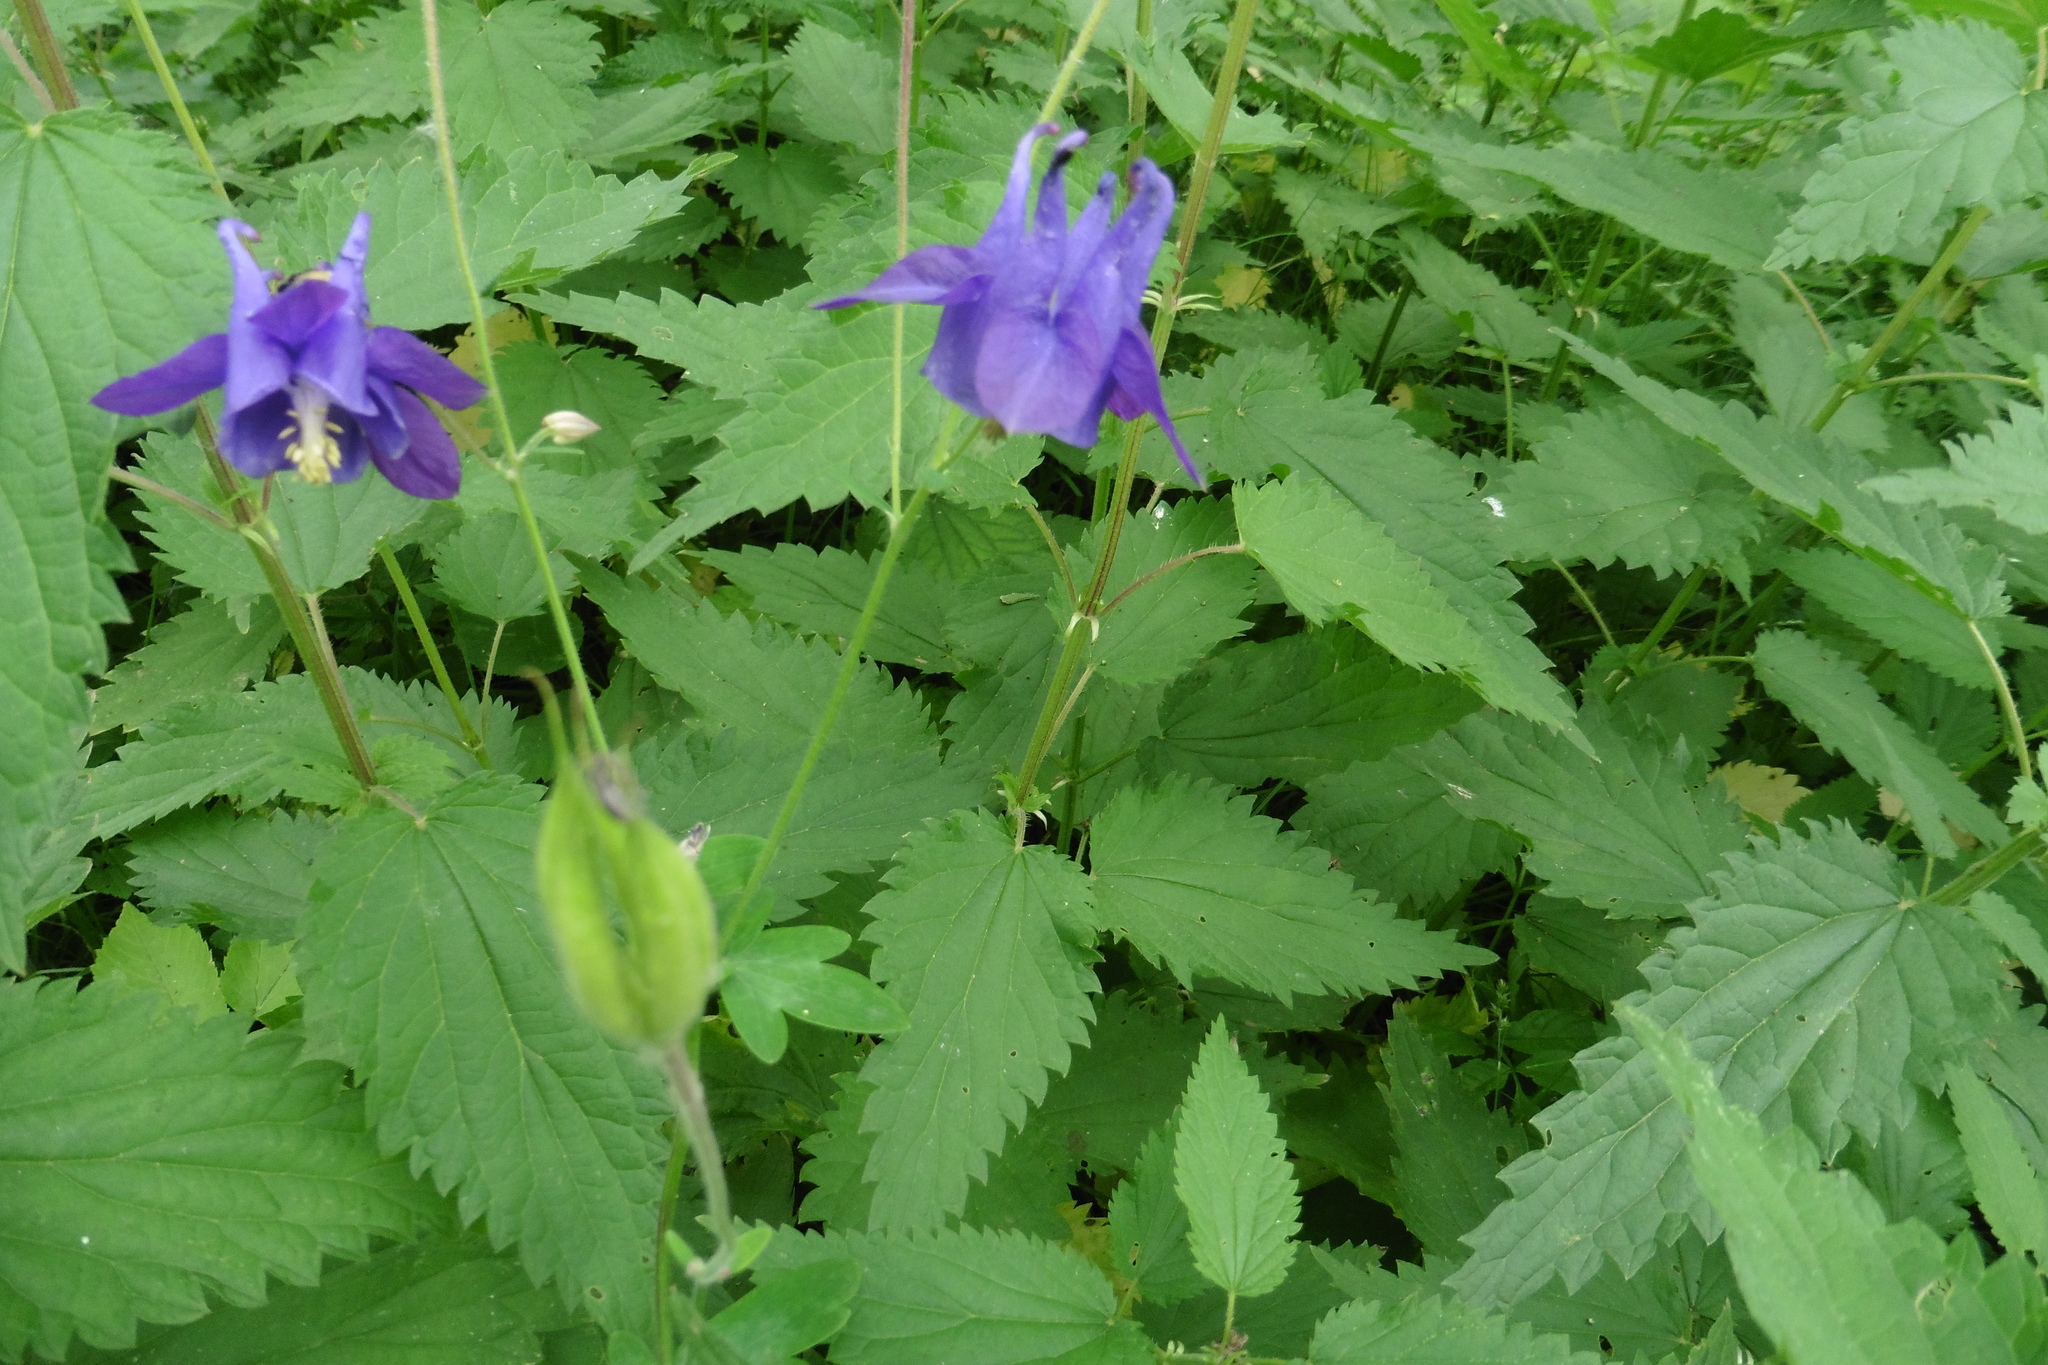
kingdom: Plantae
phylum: Tracheophyta
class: Magnoliopsida
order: Ranunculales
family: Ranunculaceae
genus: Aquilegia
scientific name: Aquilegia vulgaris
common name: Columbine
